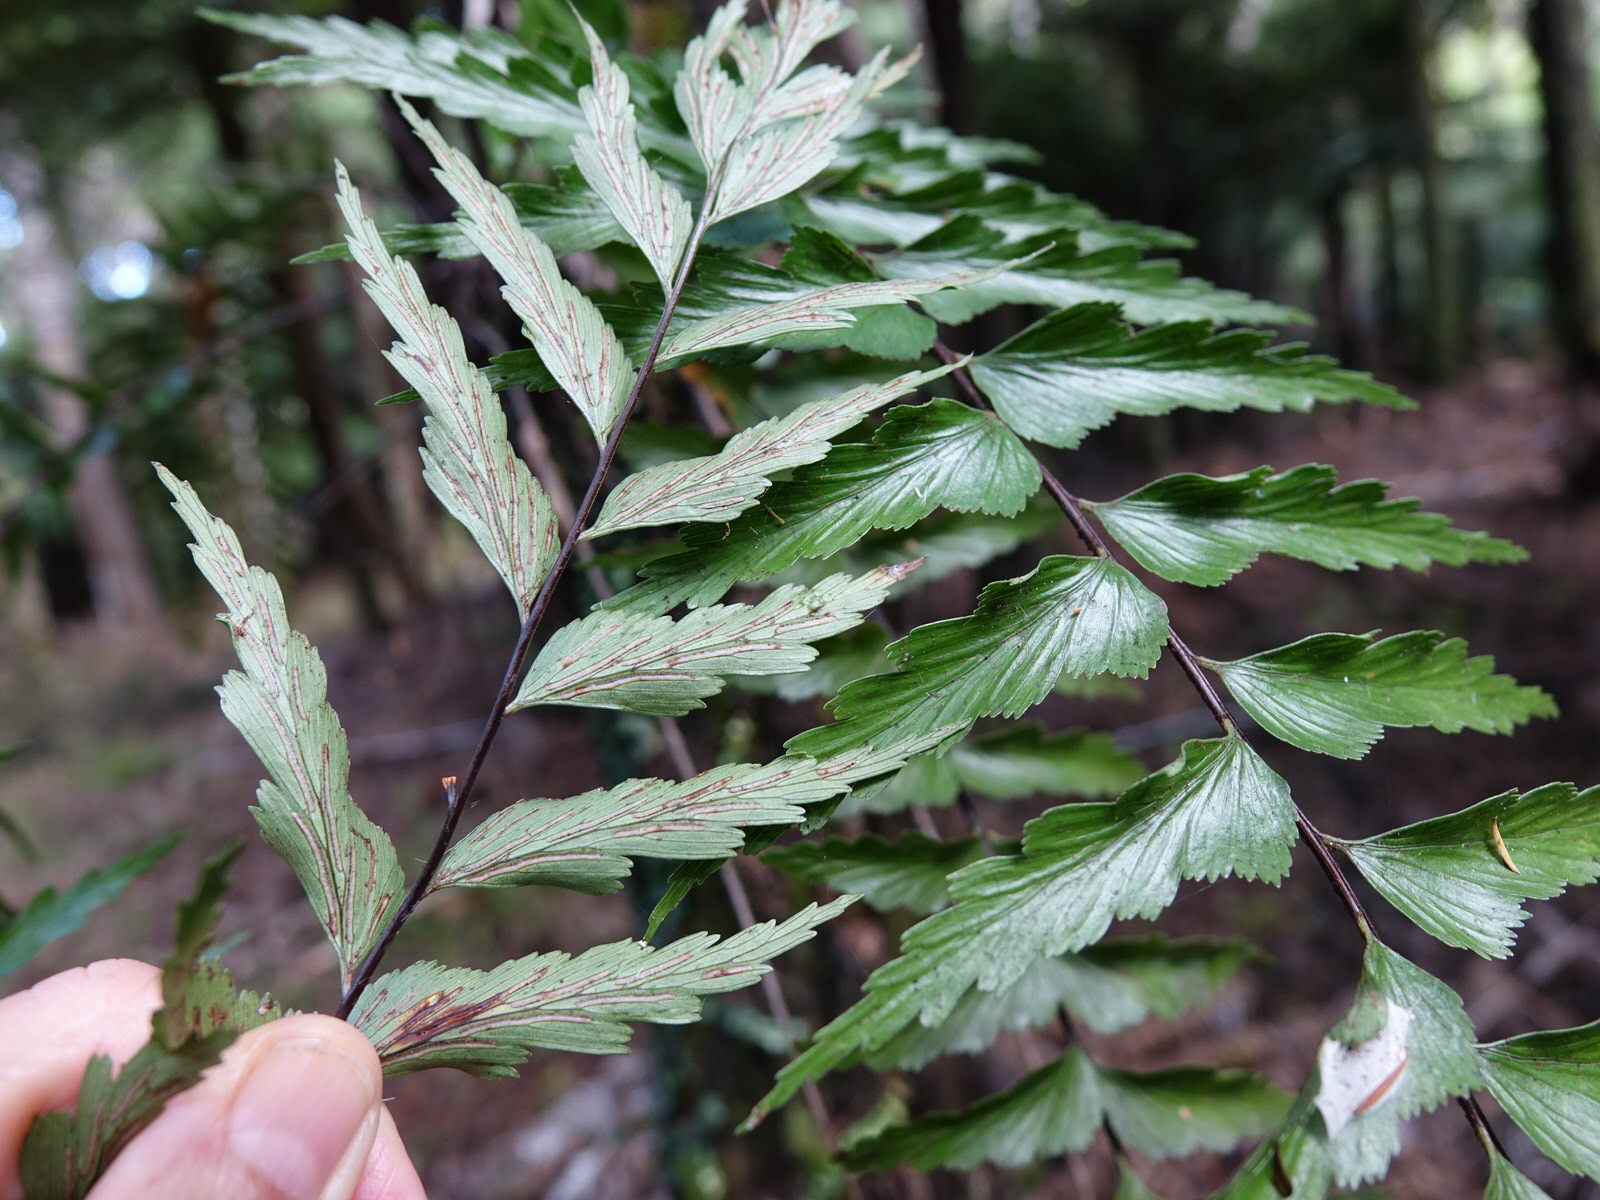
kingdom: Plantae
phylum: Tracheophyta
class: Polypodiopsida
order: Polypodiales
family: Aspleniaceae
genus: Asplenium
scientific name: Asplenium polyodon
